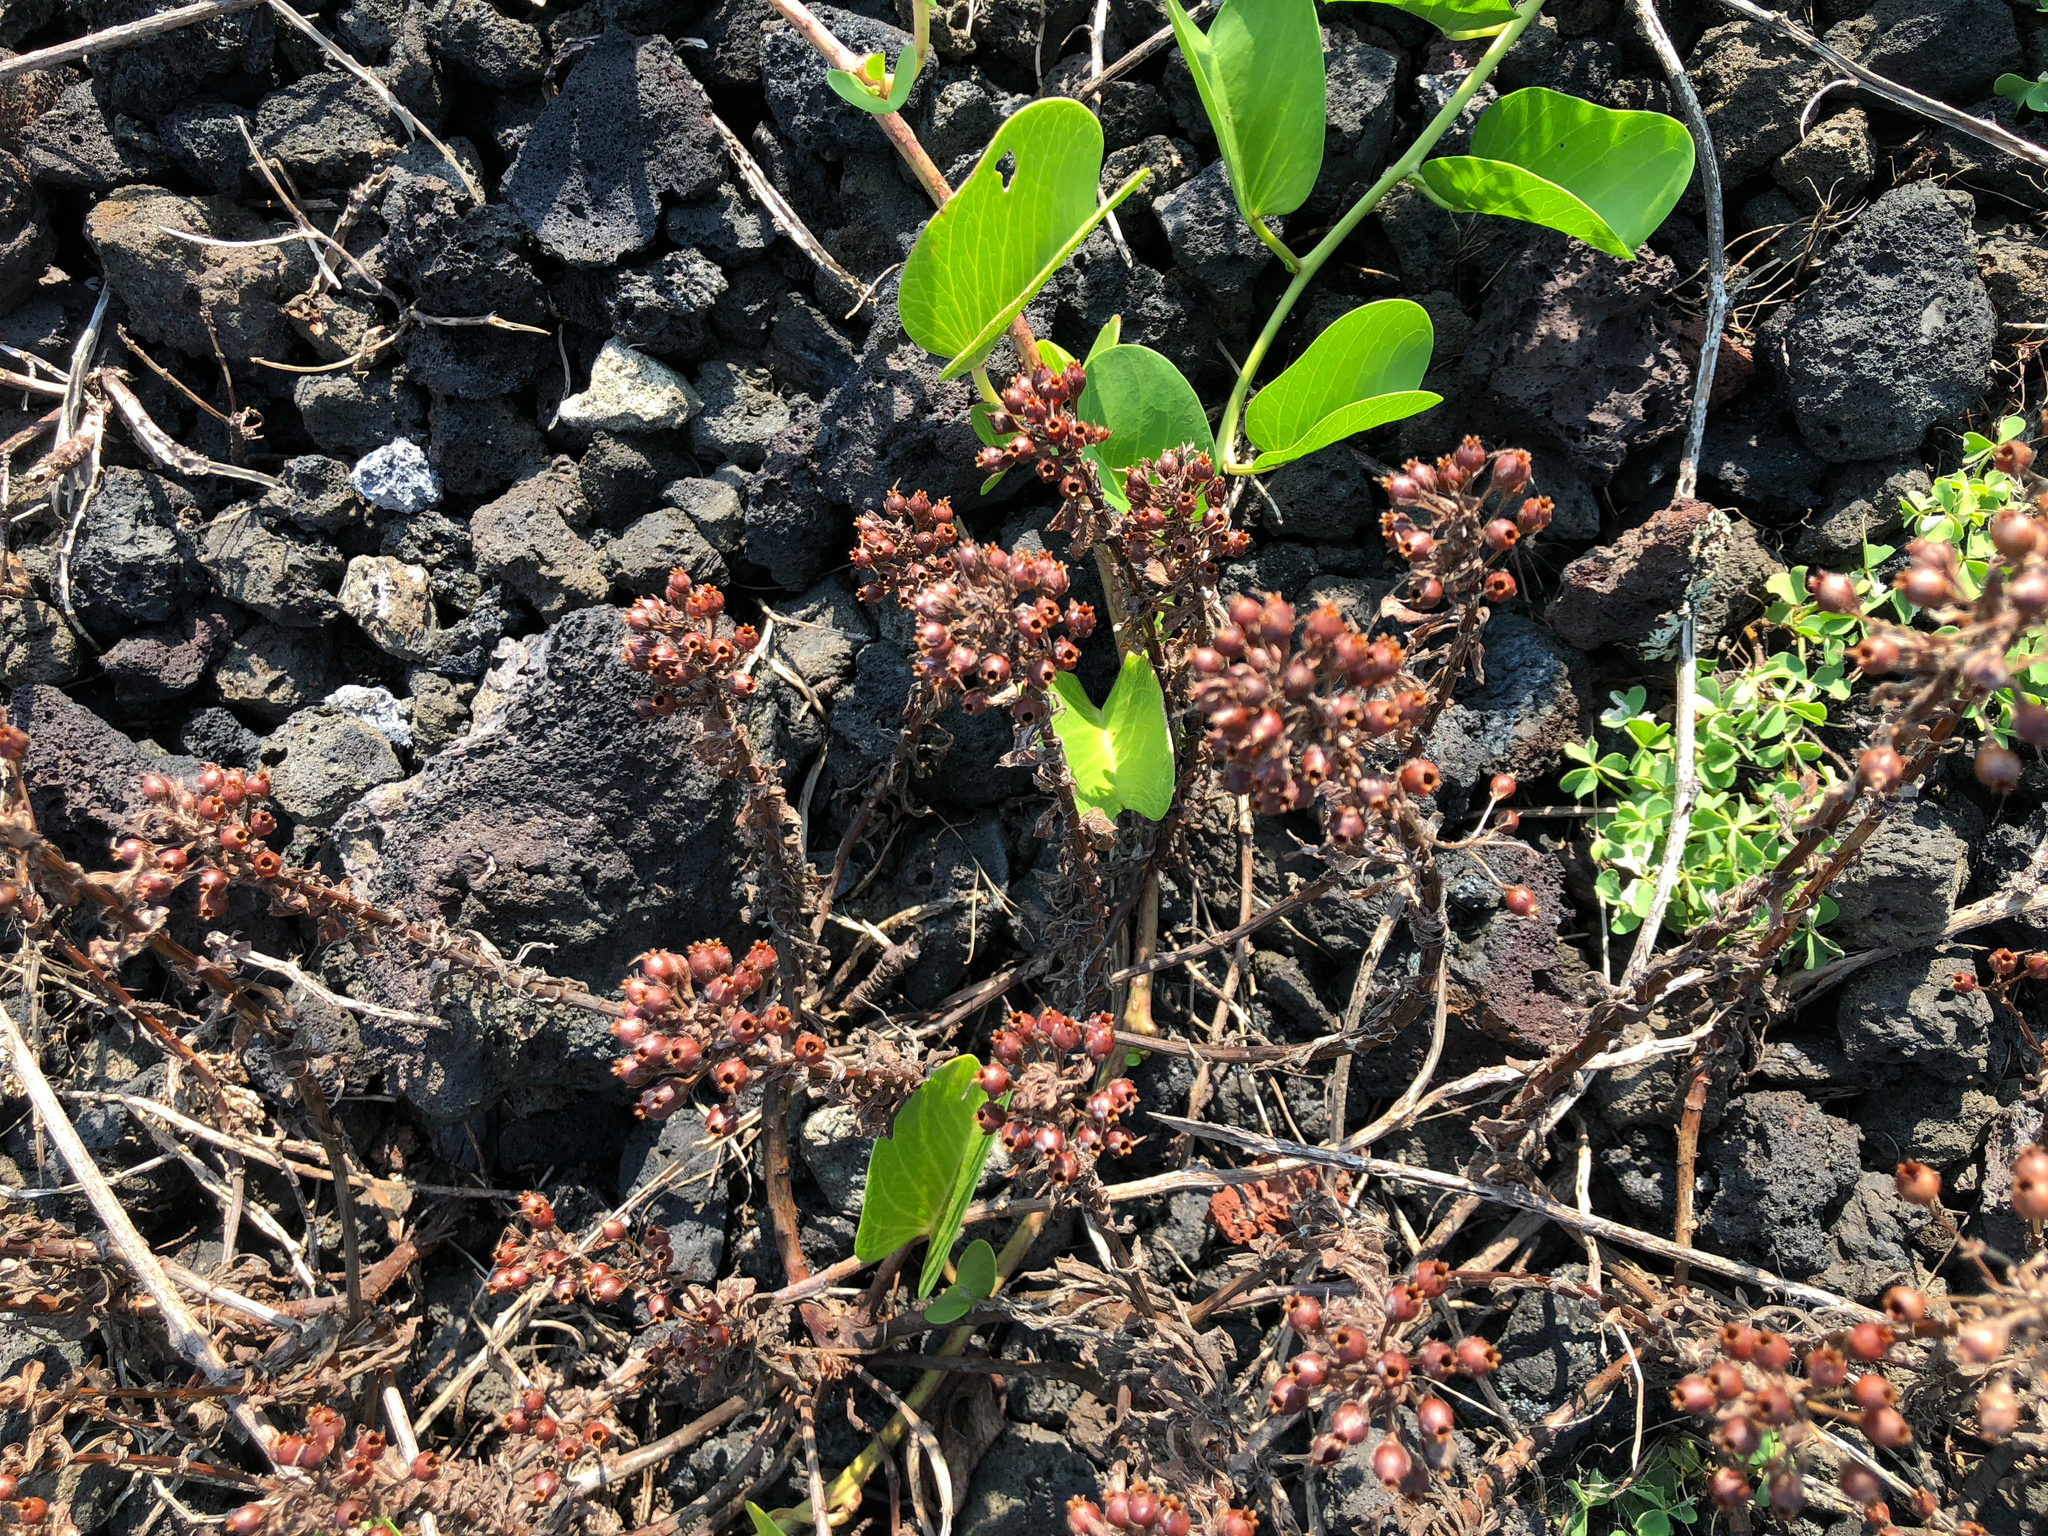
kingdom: Plantae
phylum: Tracheophyta
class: Magnoliopsida
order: Ericales
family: Primulaceae
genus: Lysimachia
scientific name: Lysimachia mauritiana
